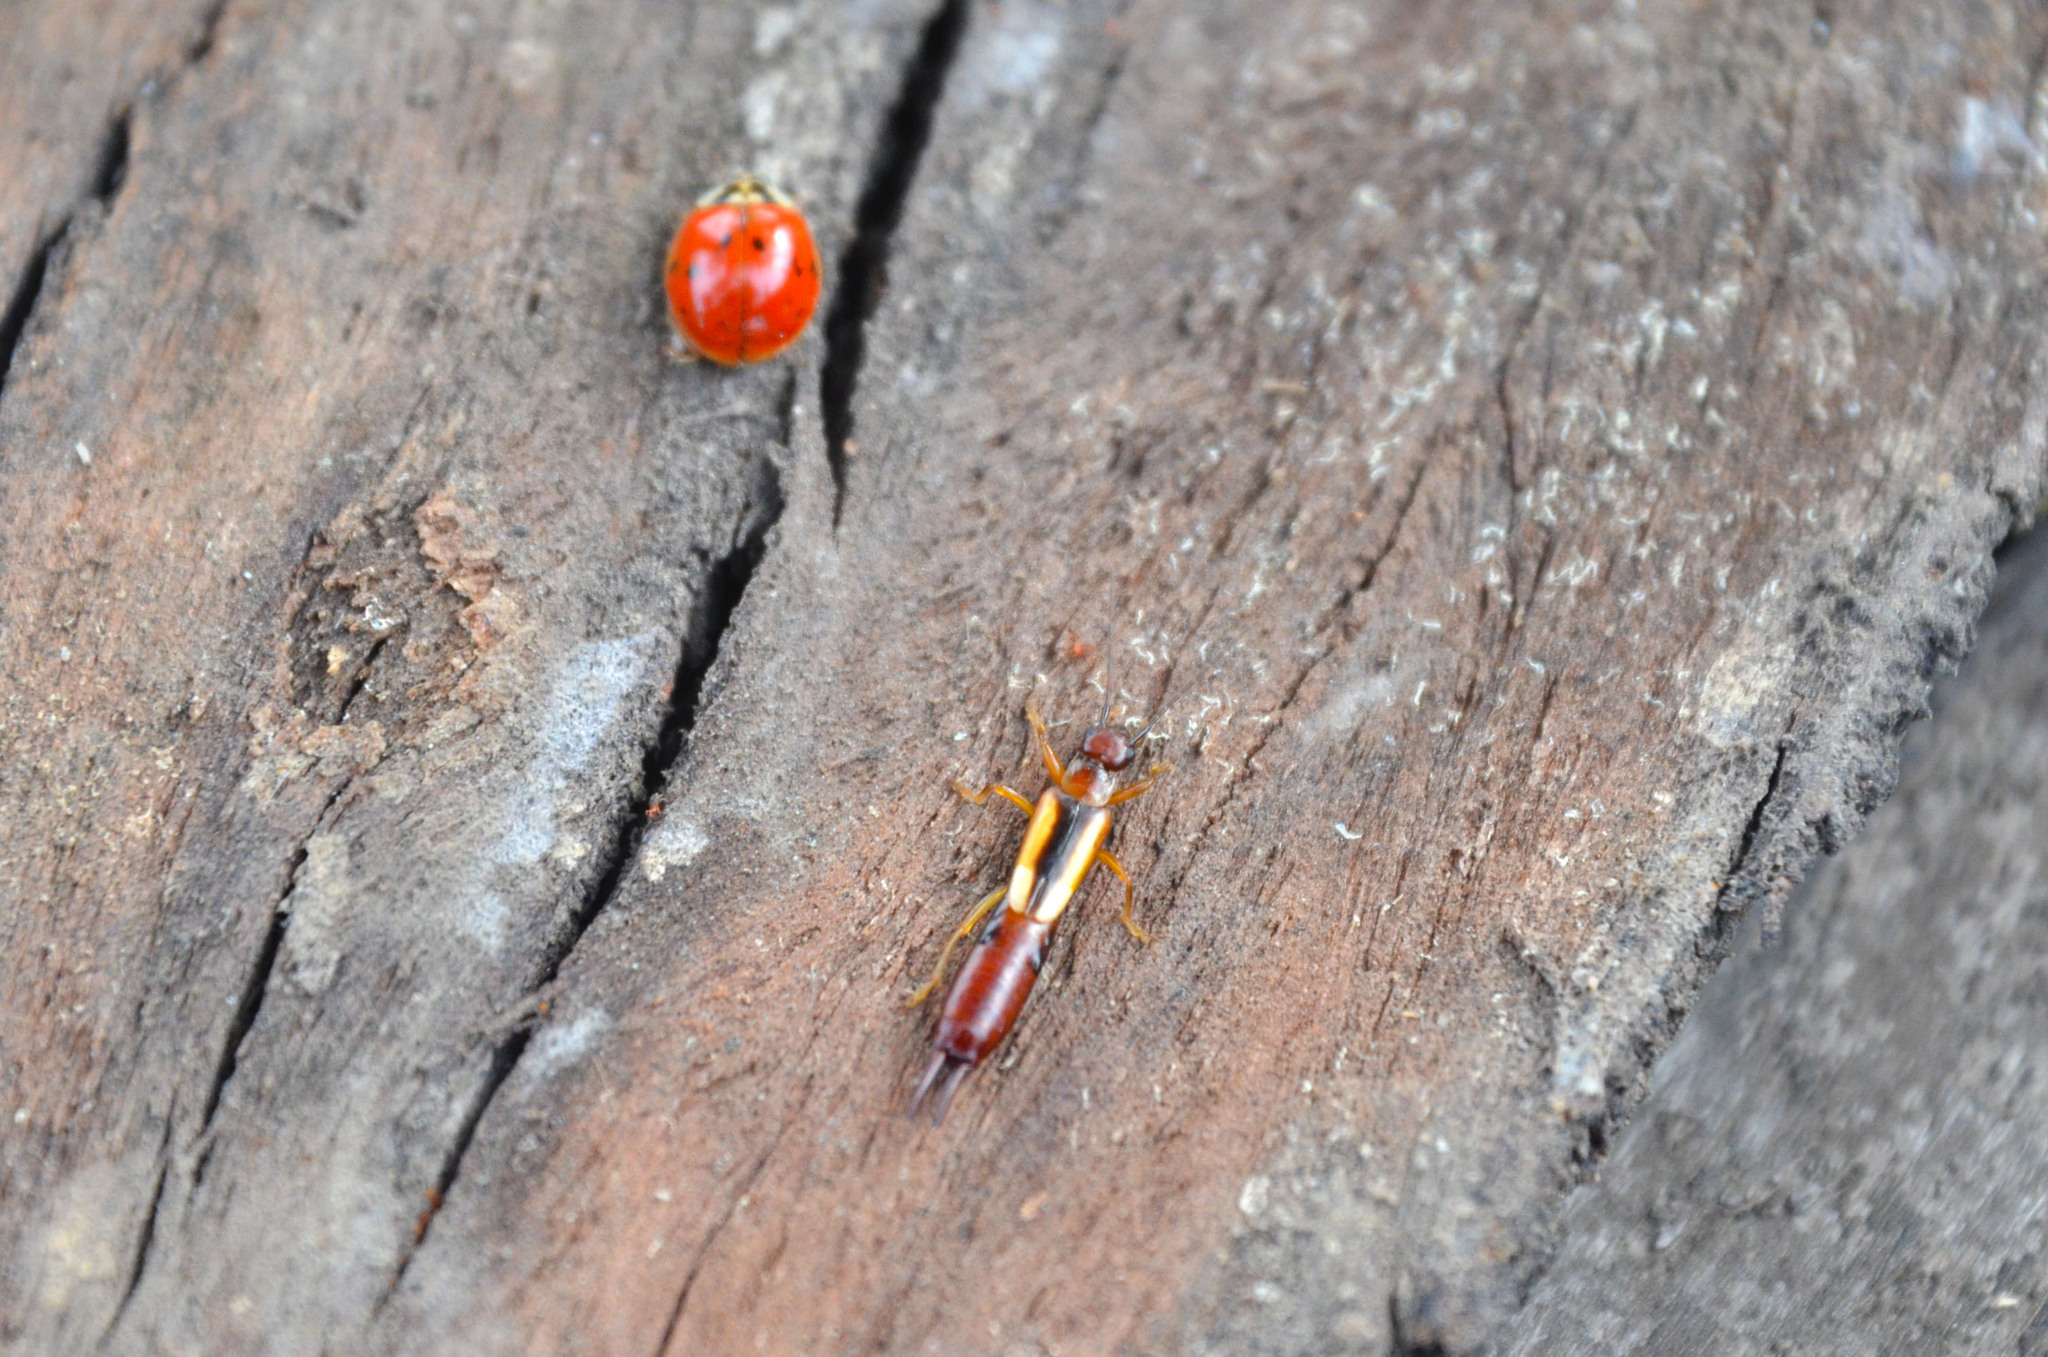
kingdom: Animalia
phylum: Arthropoda
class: Insecta
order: Dermaptera
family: Forficulidae
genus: Doru
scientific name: Doru lineare
